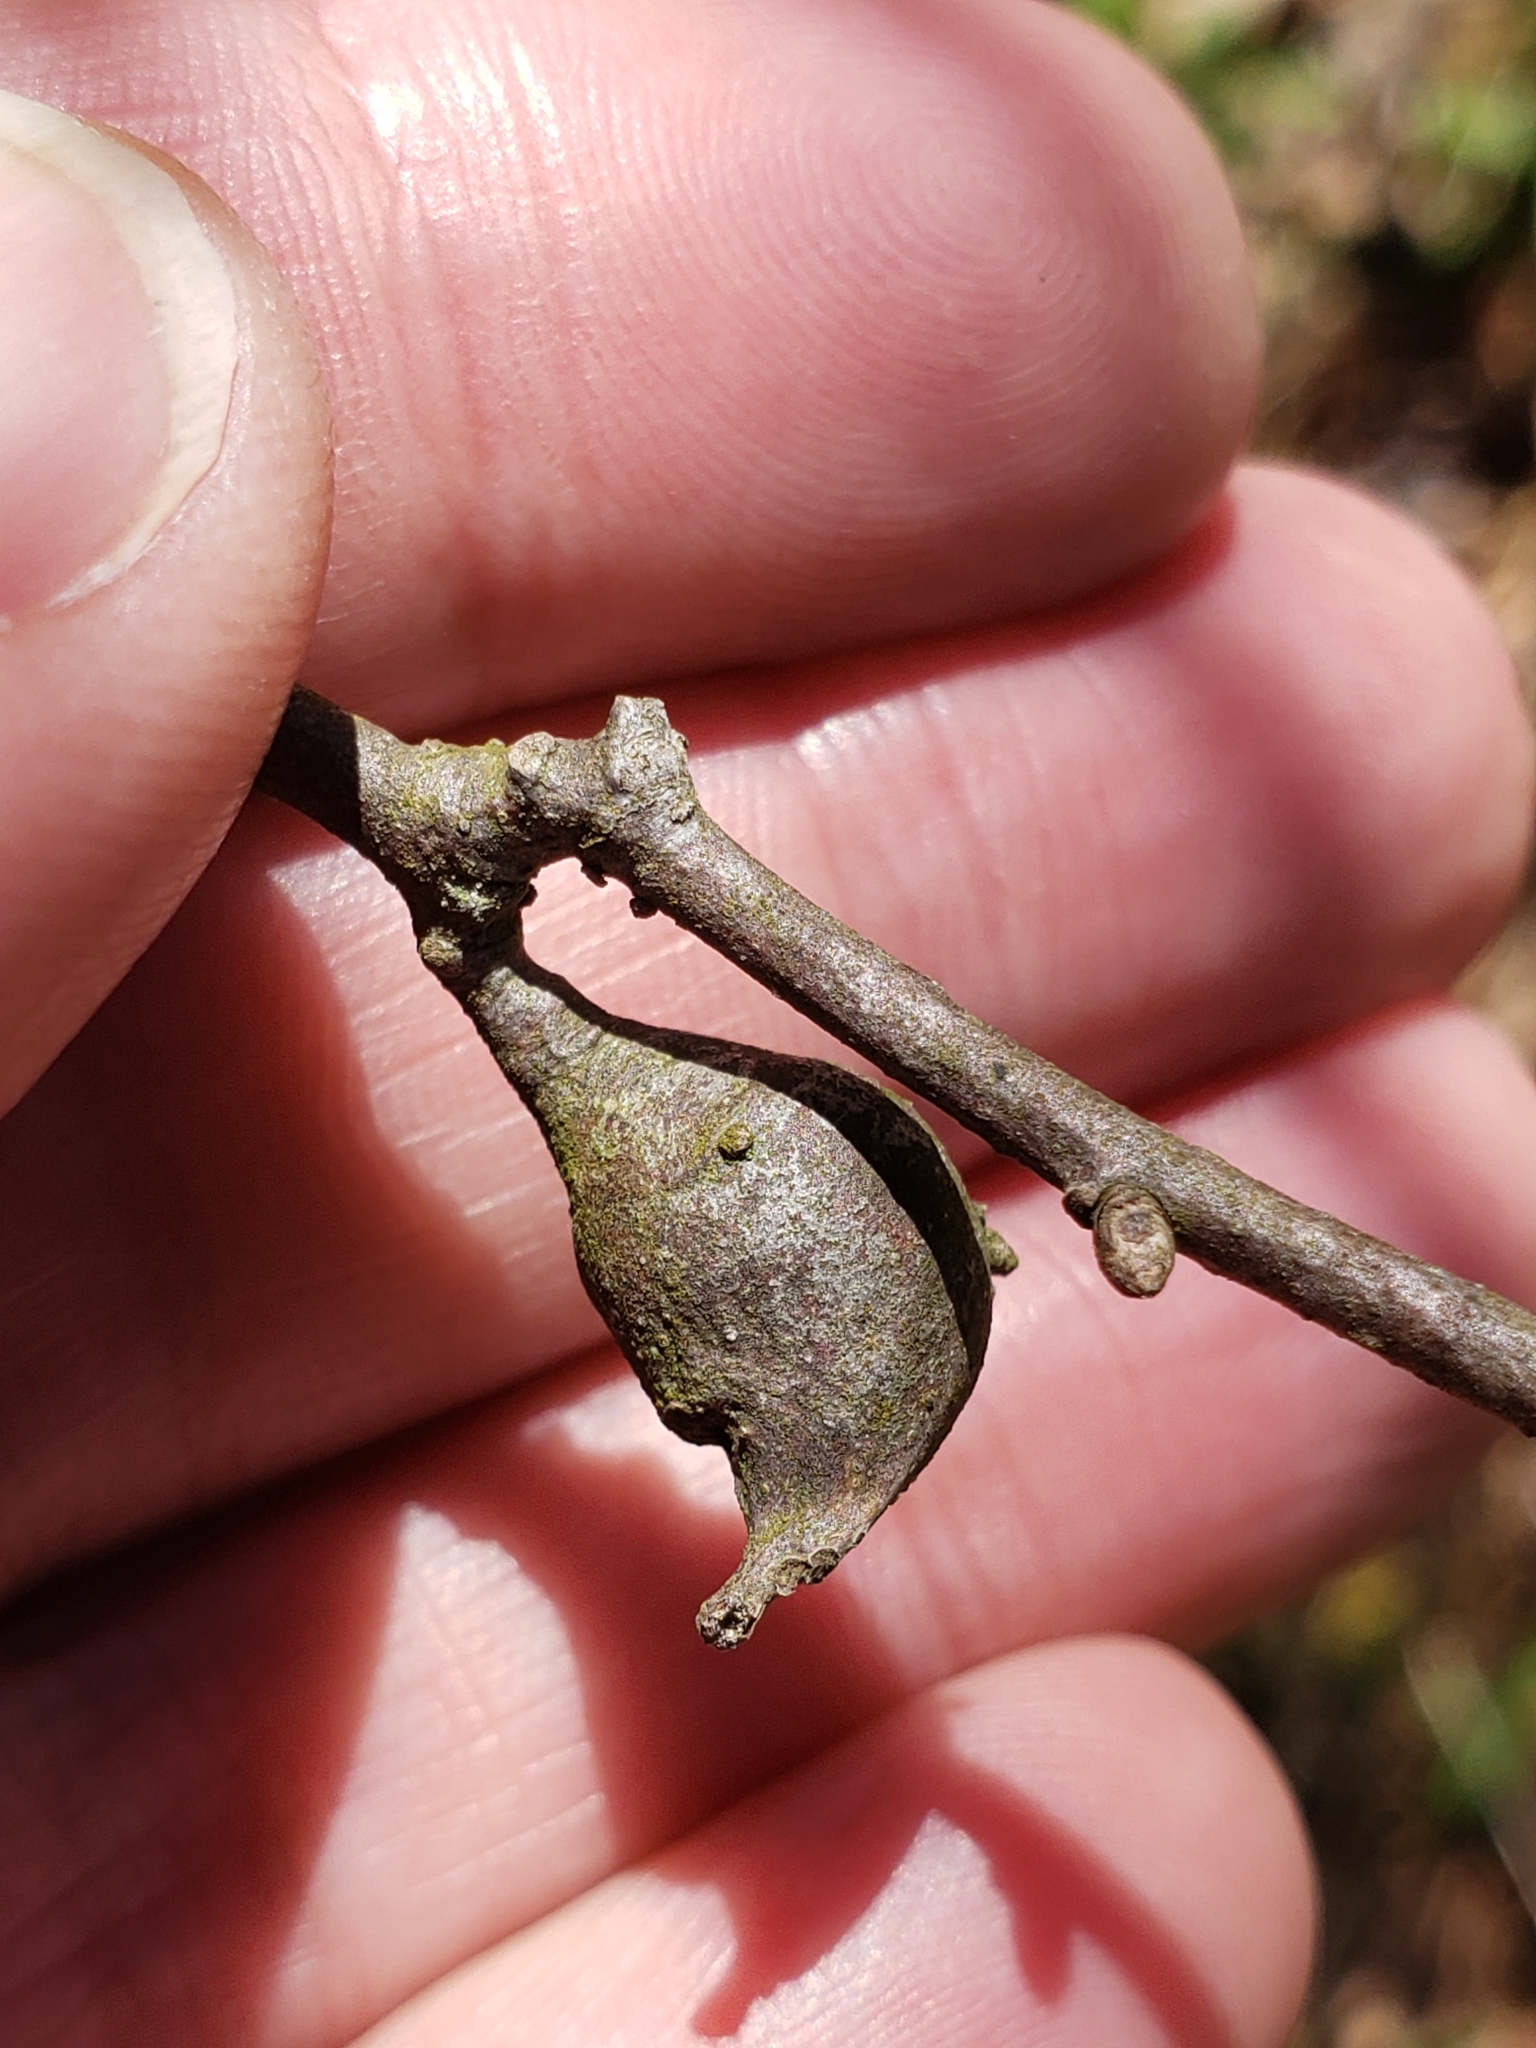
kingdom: Animalia
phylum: Arthropoda
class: Insecta
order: Hymenoptera
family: Cynipidae
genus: Zapatella
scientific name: Zapatella quercusphellos
